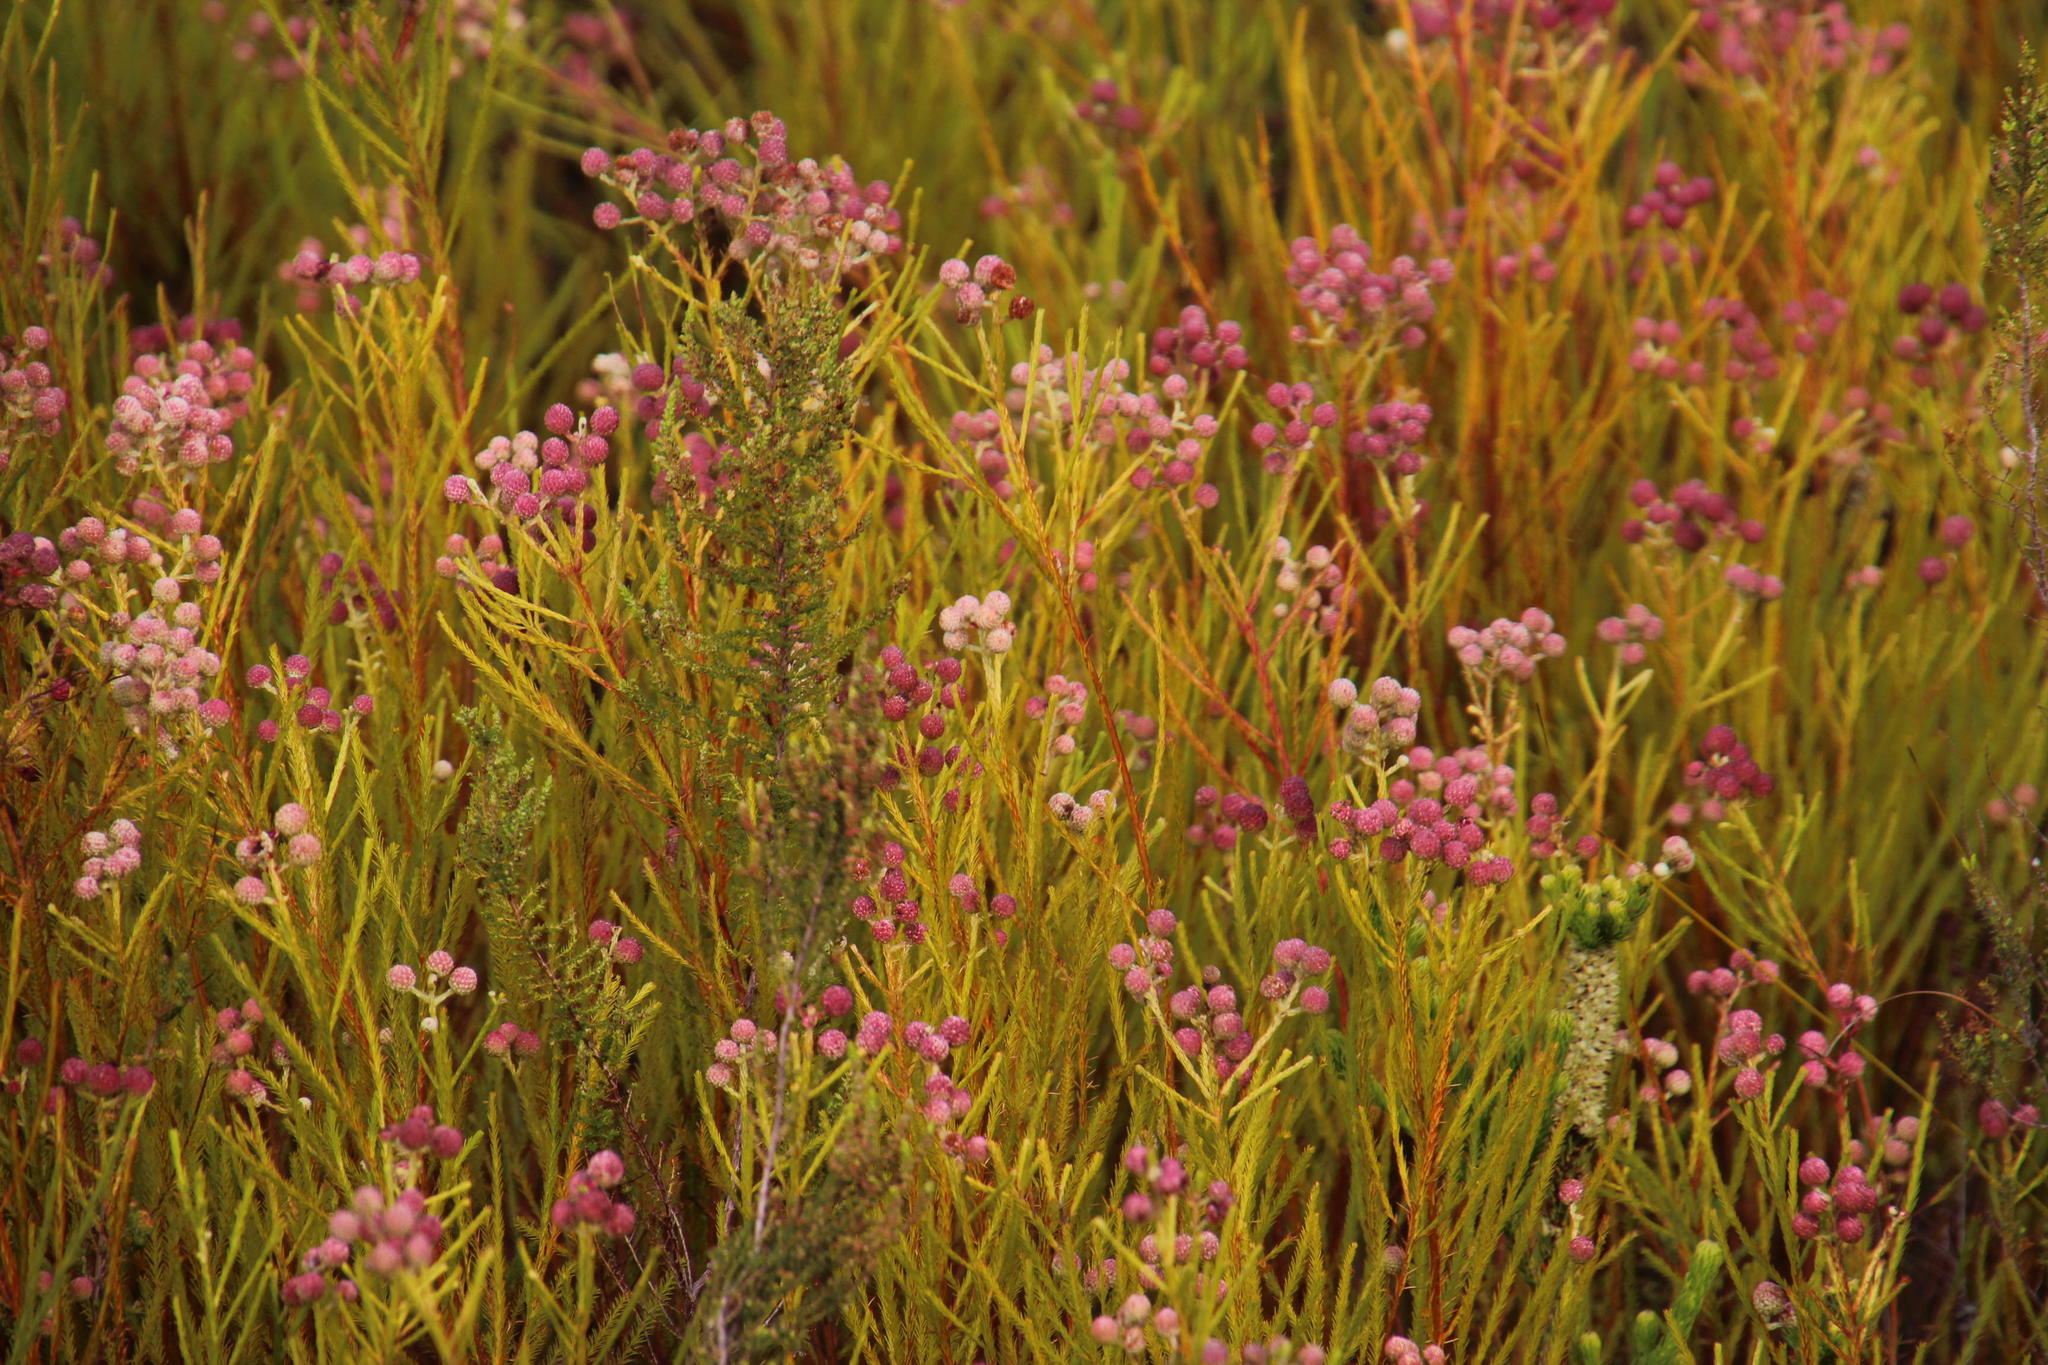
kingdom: Plantae
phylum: Tracheophyta
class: Magnoliopsida
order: Bruniales
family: Bruniaceae
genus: Berzelia
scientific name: Berzelia lanuginosa
